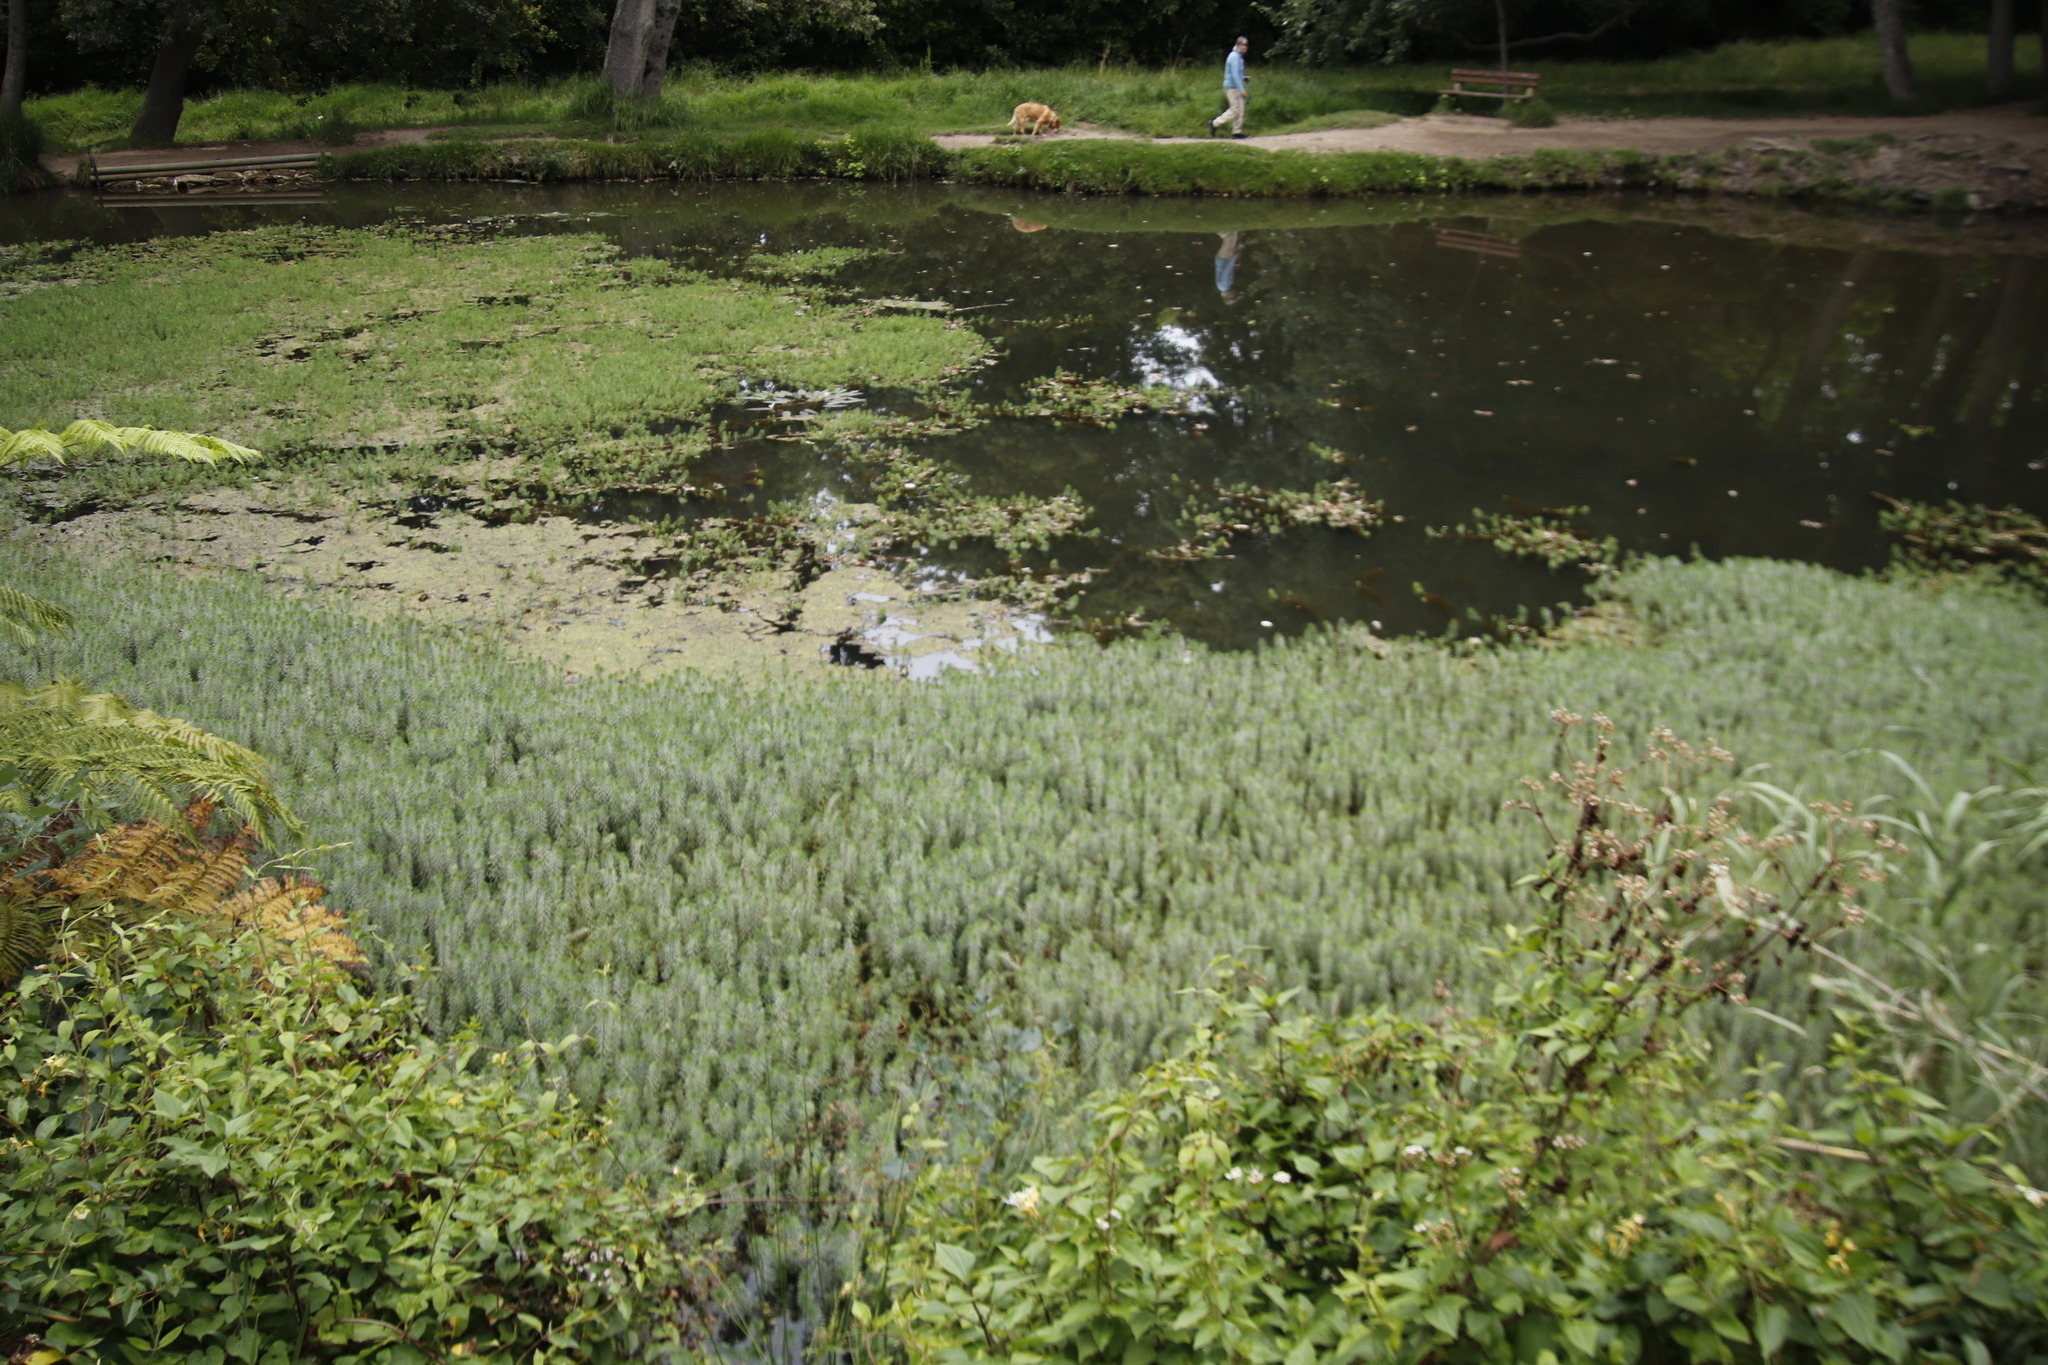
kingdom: Plantae
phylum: Tracheophyta
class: Magnoliopsida
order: Saxifragales
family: Haloragaceae
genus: Myriophyllum
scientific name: Myriophyllum aquaticum
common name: Parrot's feather
